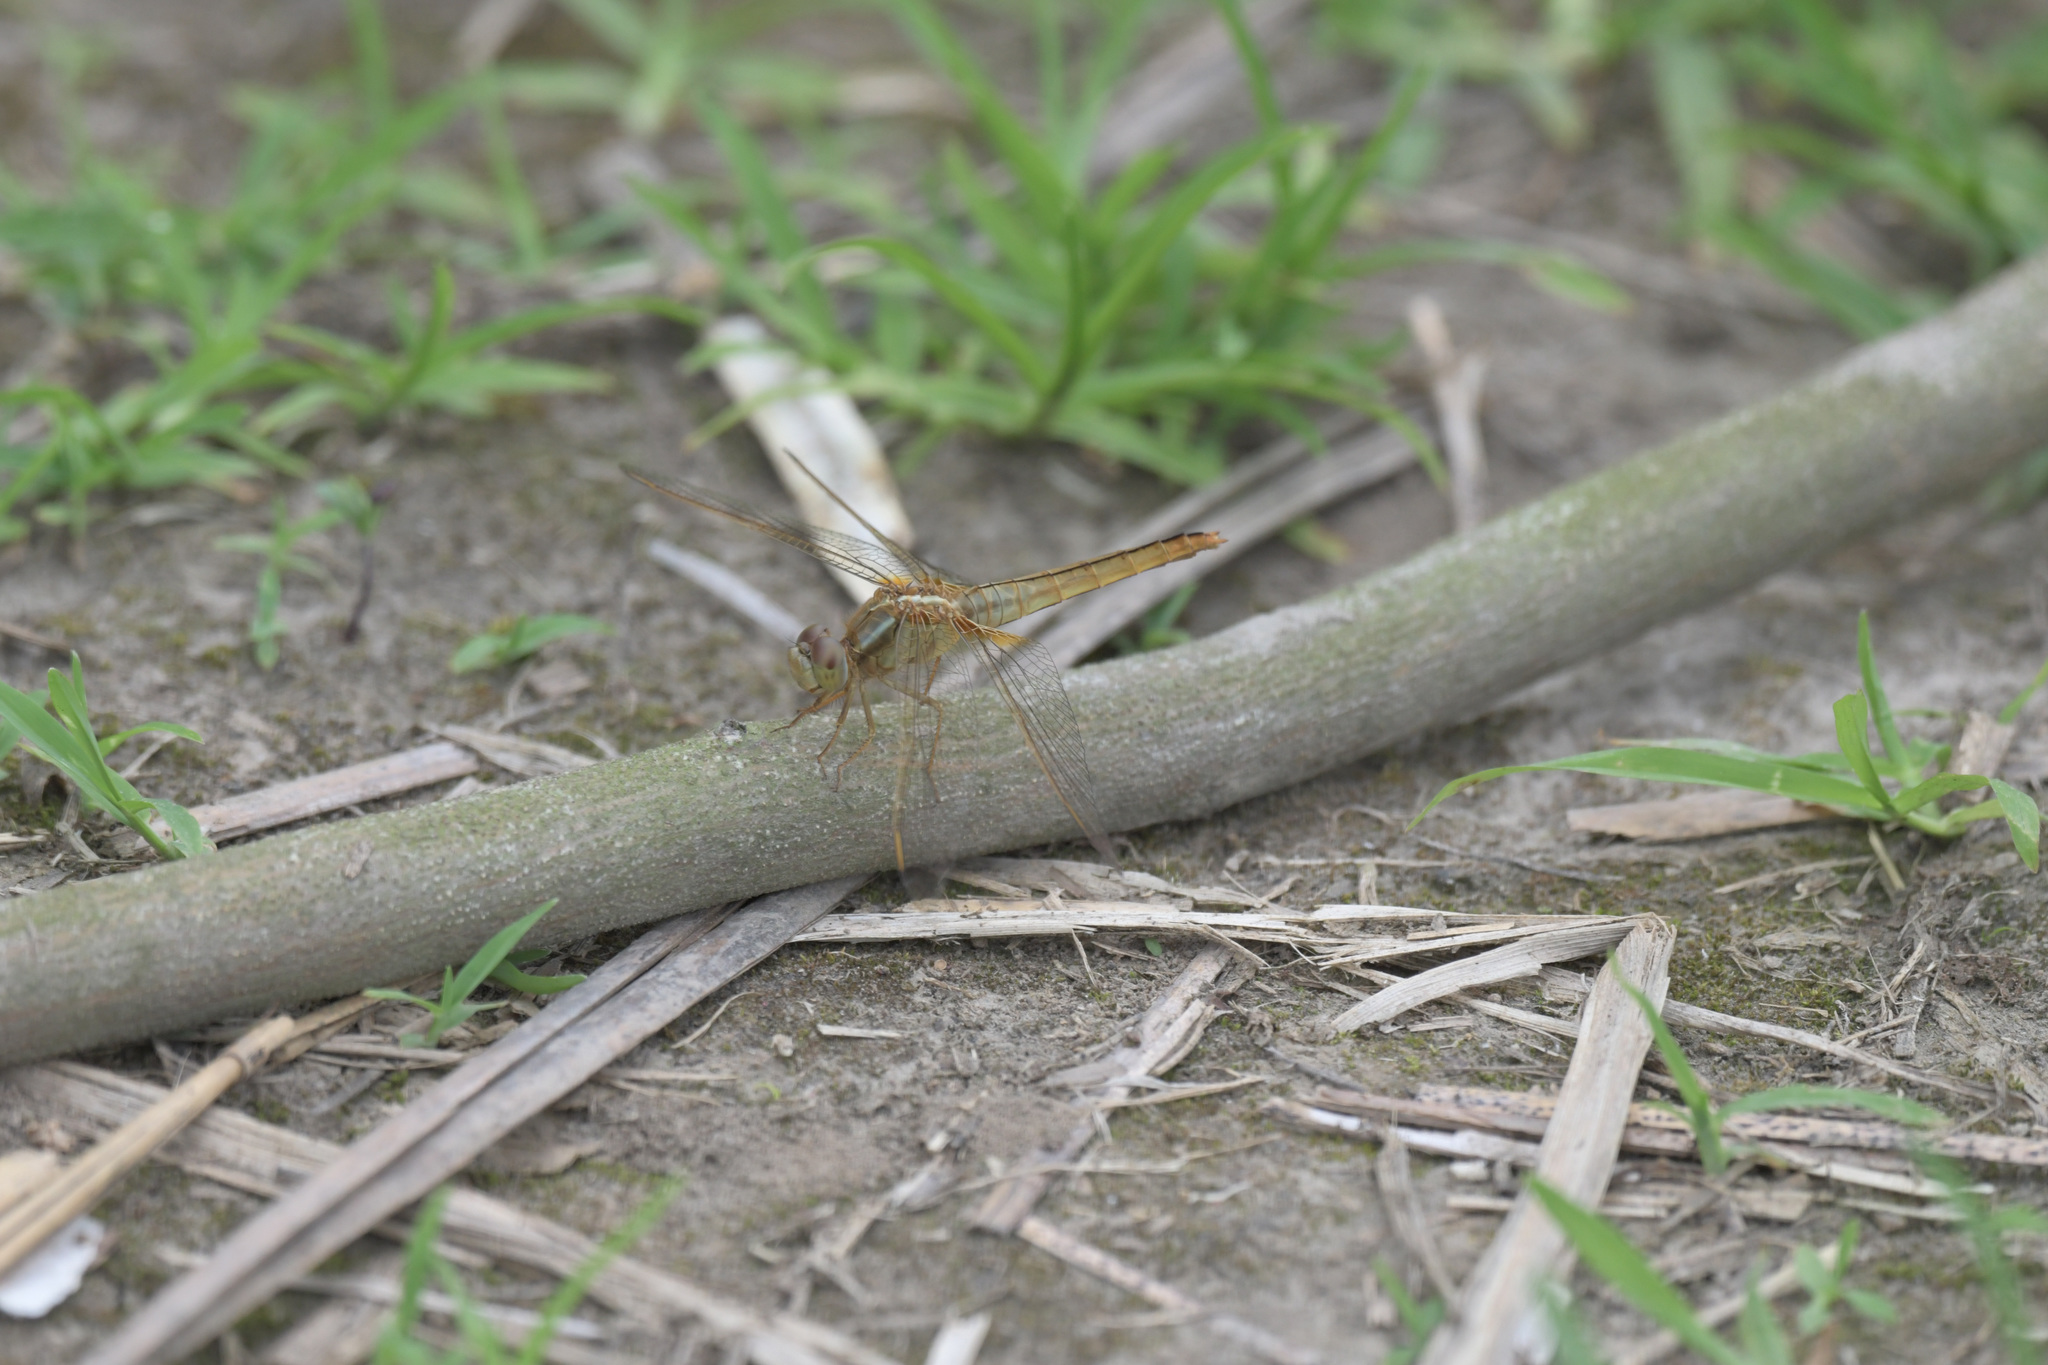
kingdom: Animalia
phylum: Arthropoda
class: Insecta
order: Odonata
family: Libellulidae
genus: Crocothemis
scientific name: Crocothemis servilia
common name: Scarlet skimmer
